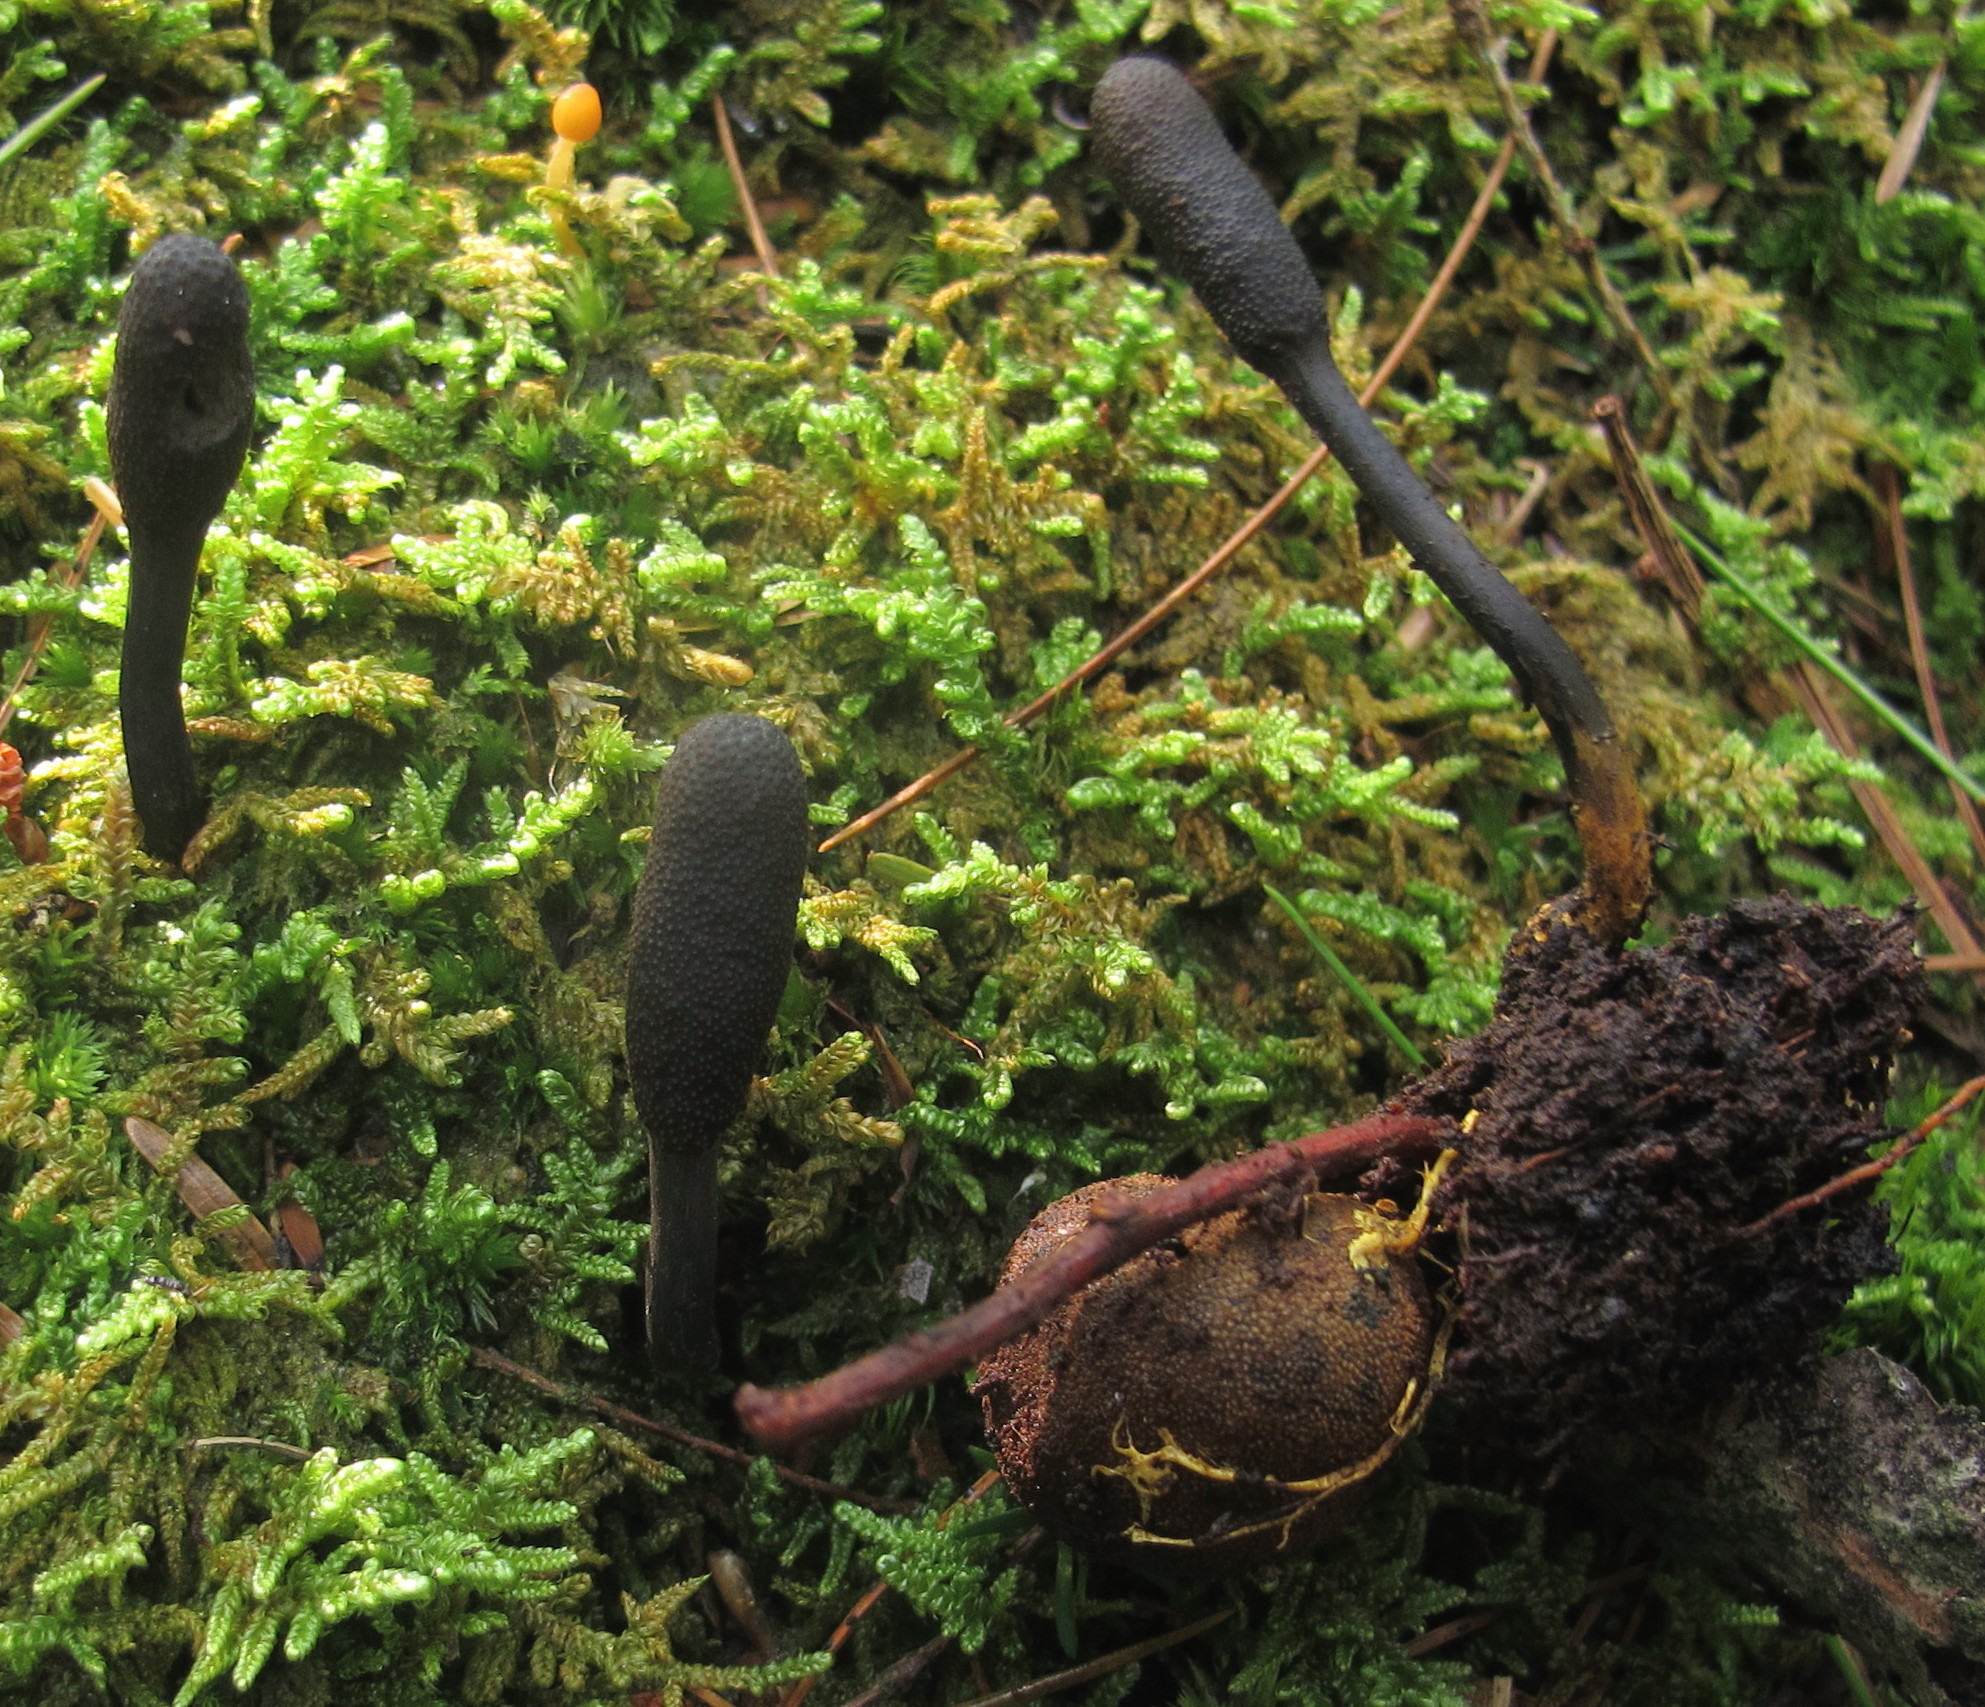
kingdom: Fungi
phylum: Ascomycota
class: Sordariomycetes
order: Hypocreales
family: Ophiocordycipitaceae
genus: Tolypocladium
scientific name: Tolypocladium ophioglossoides
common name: Snaketongue truffleclub
